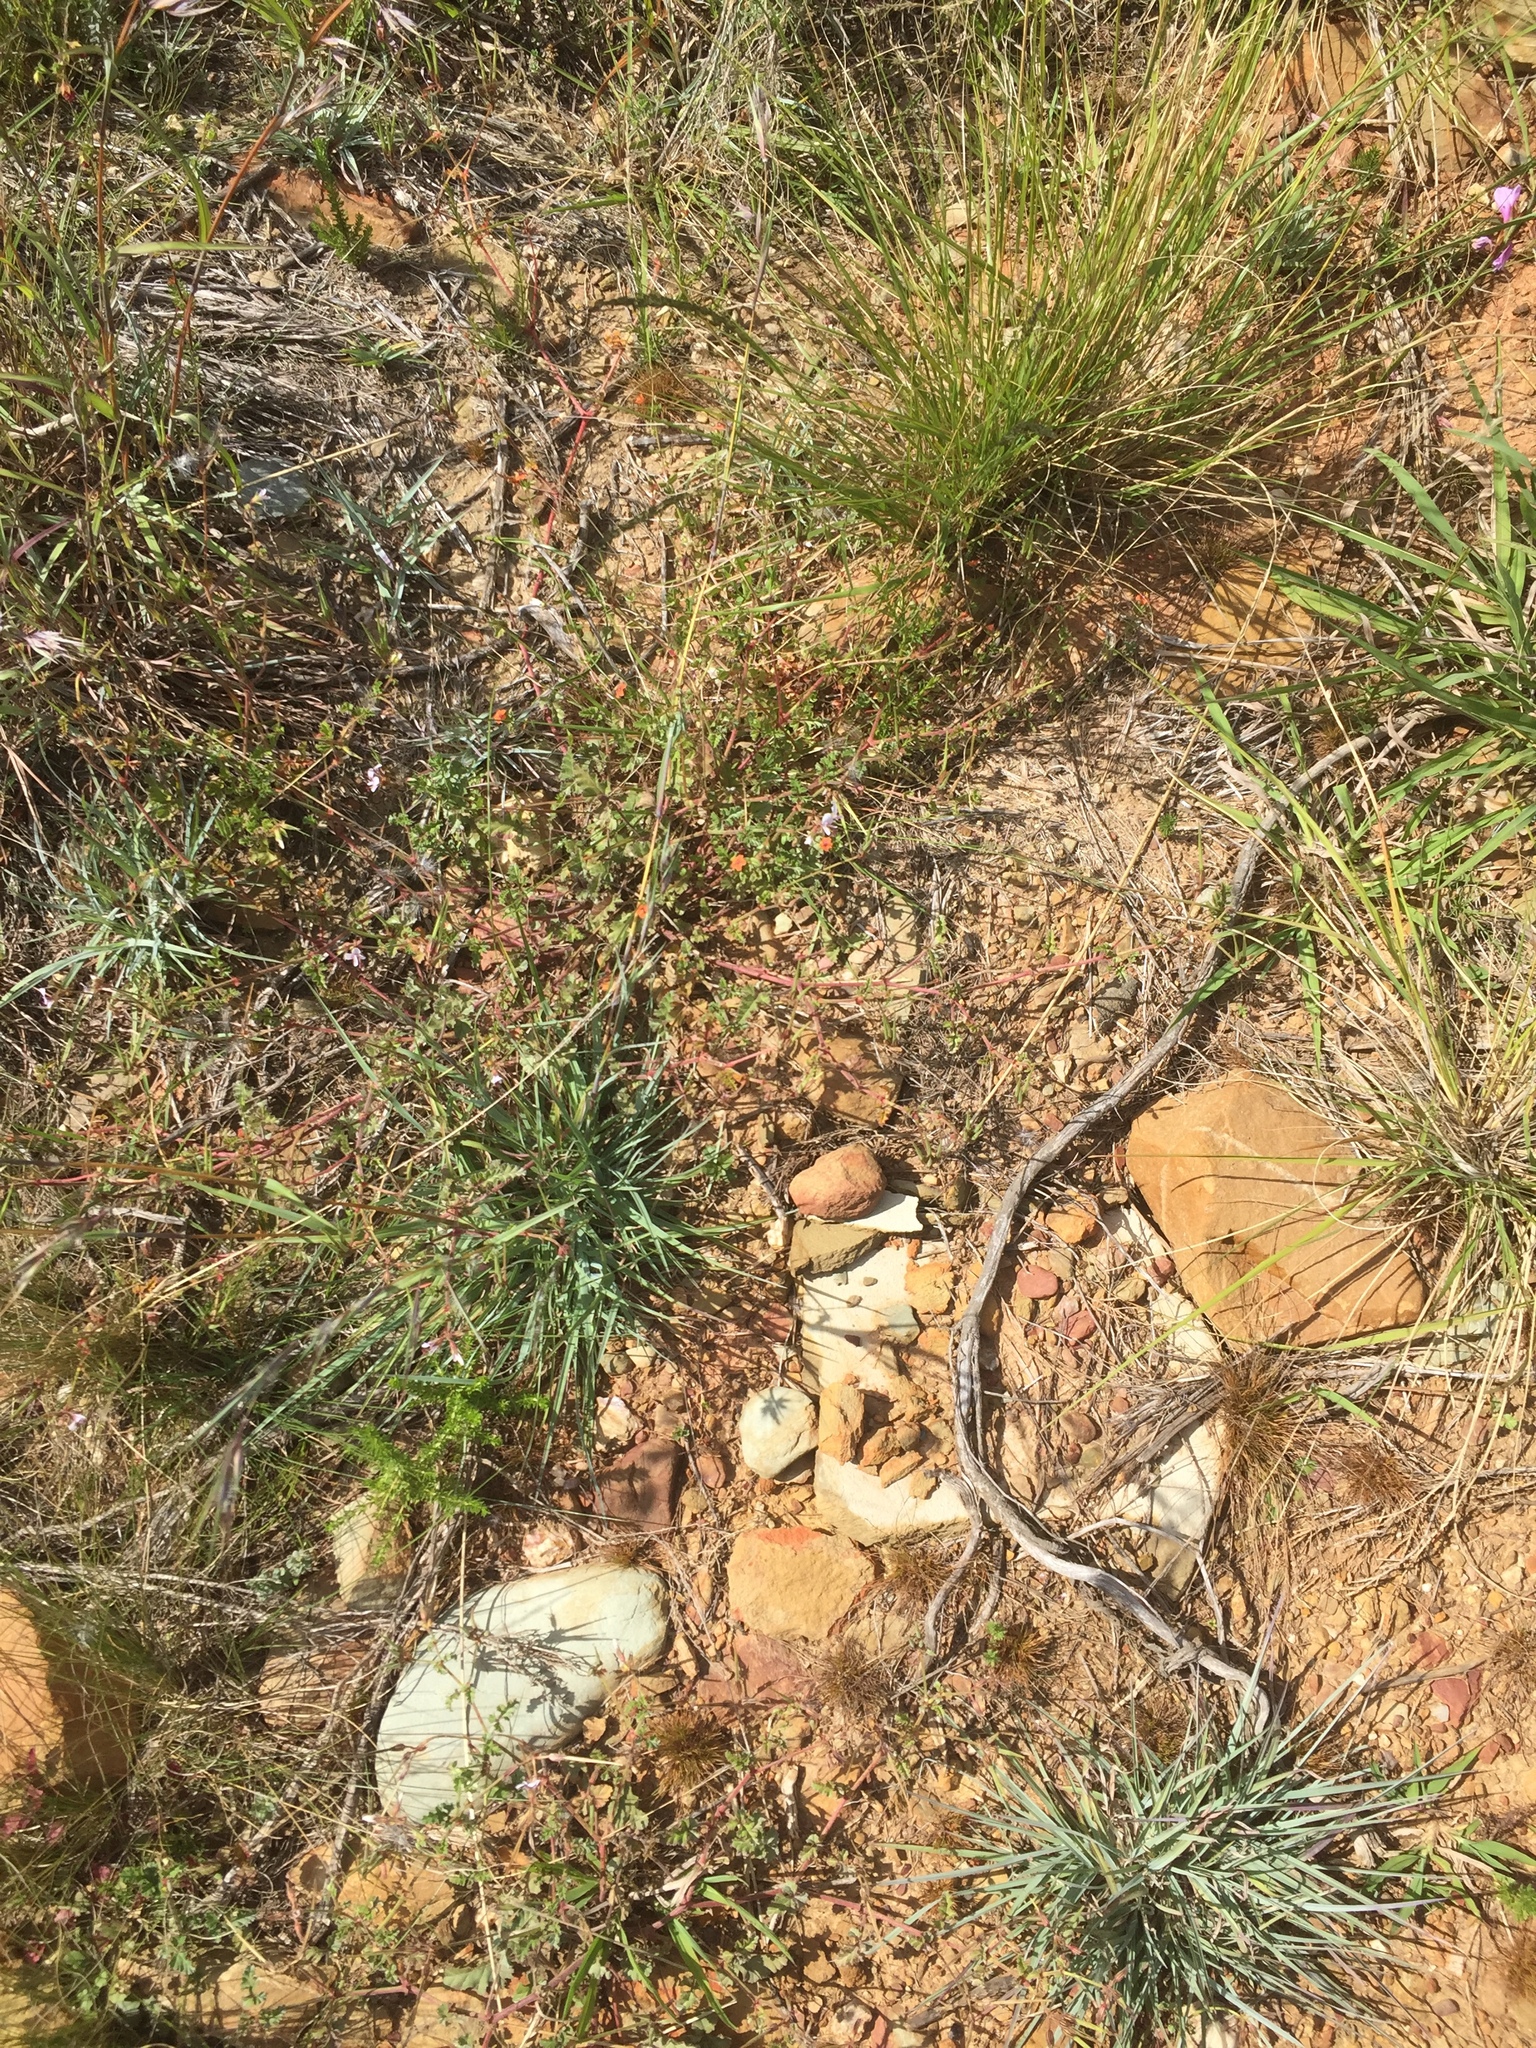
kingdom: Plantae
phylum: Tracheophyta
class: Magnoliopsida
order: Ericales
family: Primulaceae
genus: Lysimachia
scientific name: Lysimachia arvensis
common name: Scarlet pimpernel
